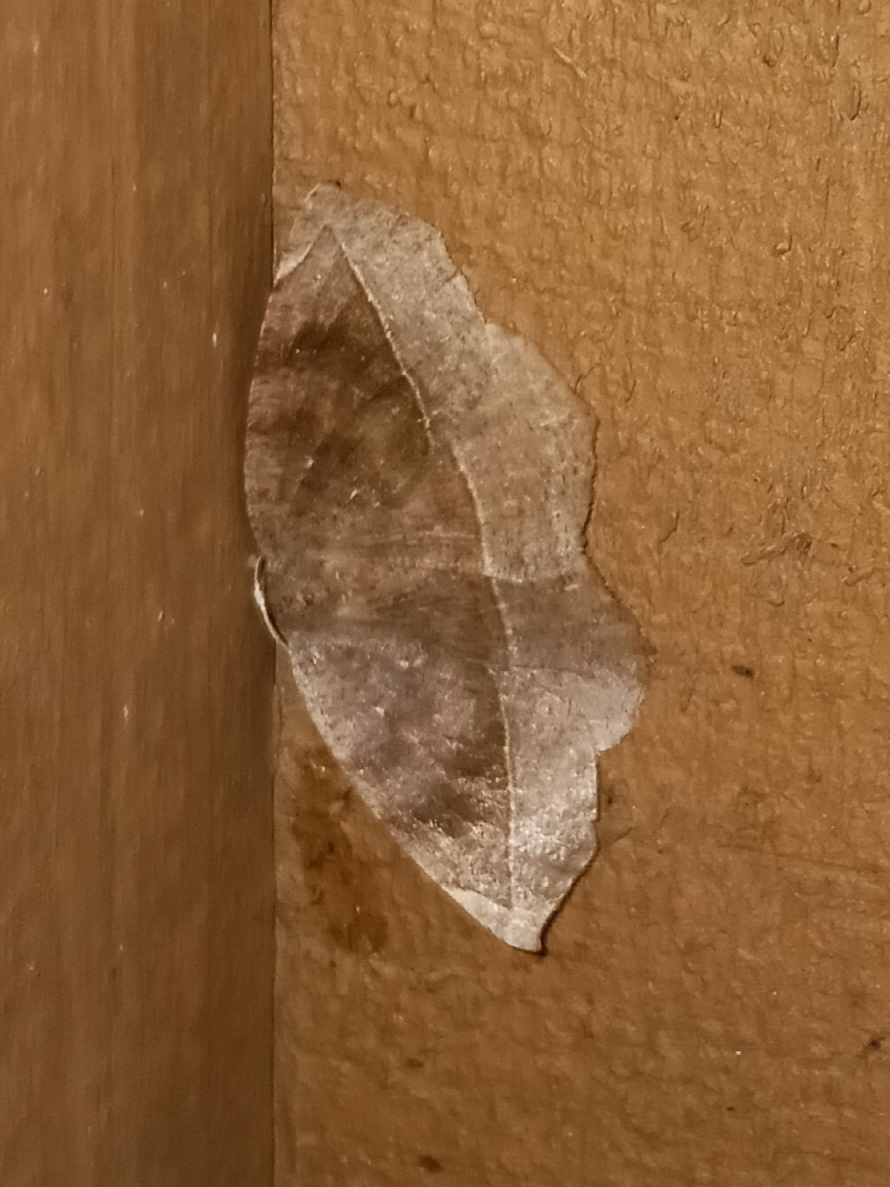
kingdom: Animalia
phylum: Arthropoda
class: Insecta
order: Lepidoptera
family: Geometridae
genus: Eutrapela
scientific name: Eutrapela clemataria
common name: Curved-toothed geometer
